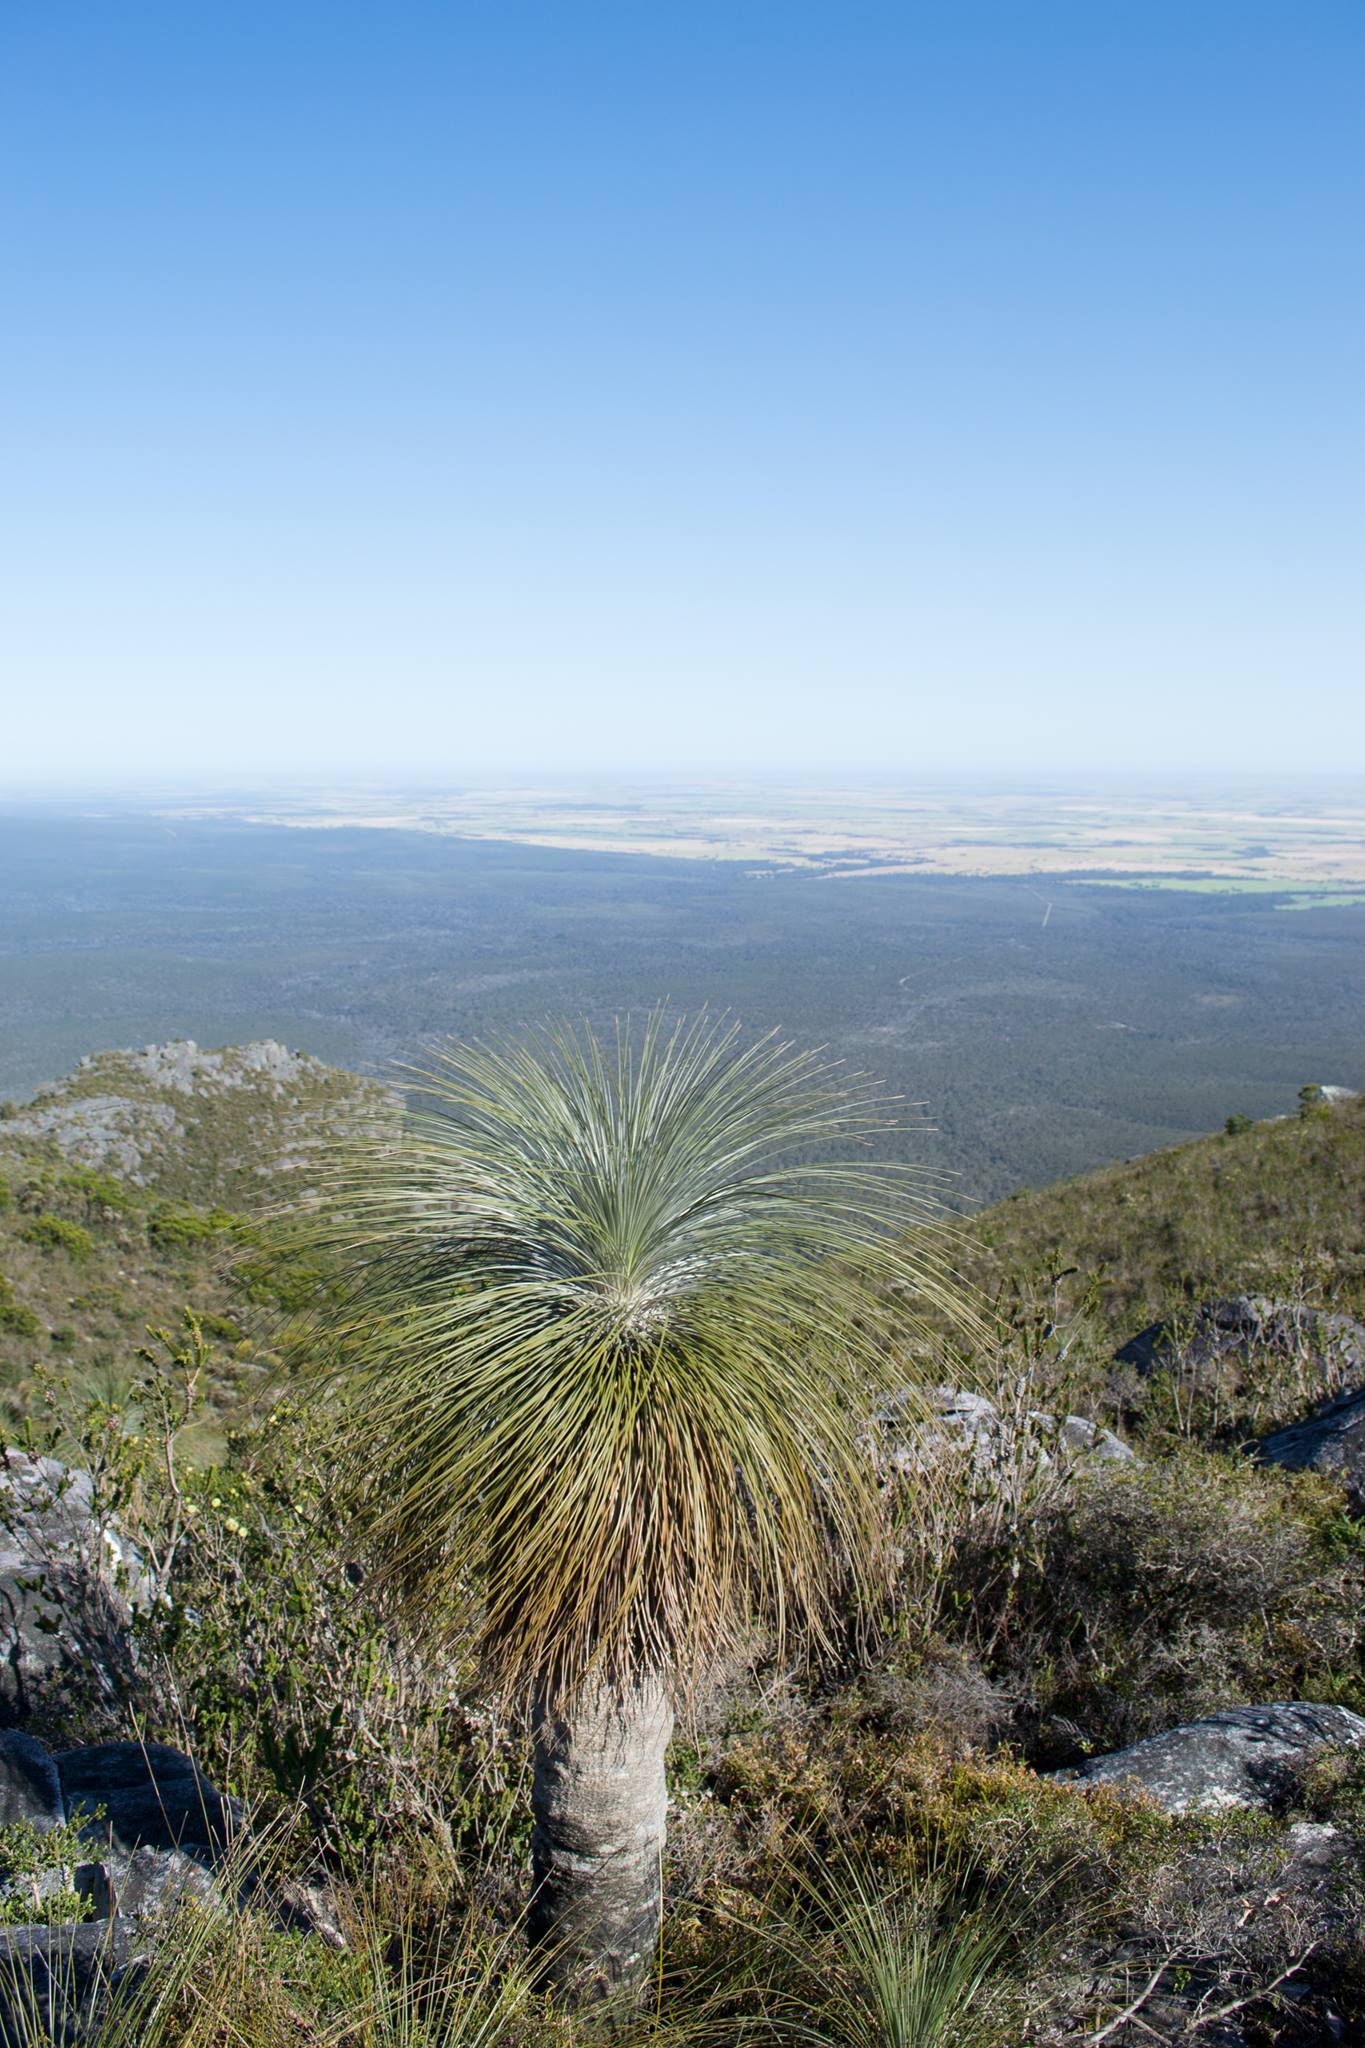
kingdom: Plantae
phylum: Tracheophyta
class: Liliopsida
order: Arecales
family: Dasypogonaceae
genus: Kingia
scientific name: Kingia australis
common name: Black gin
